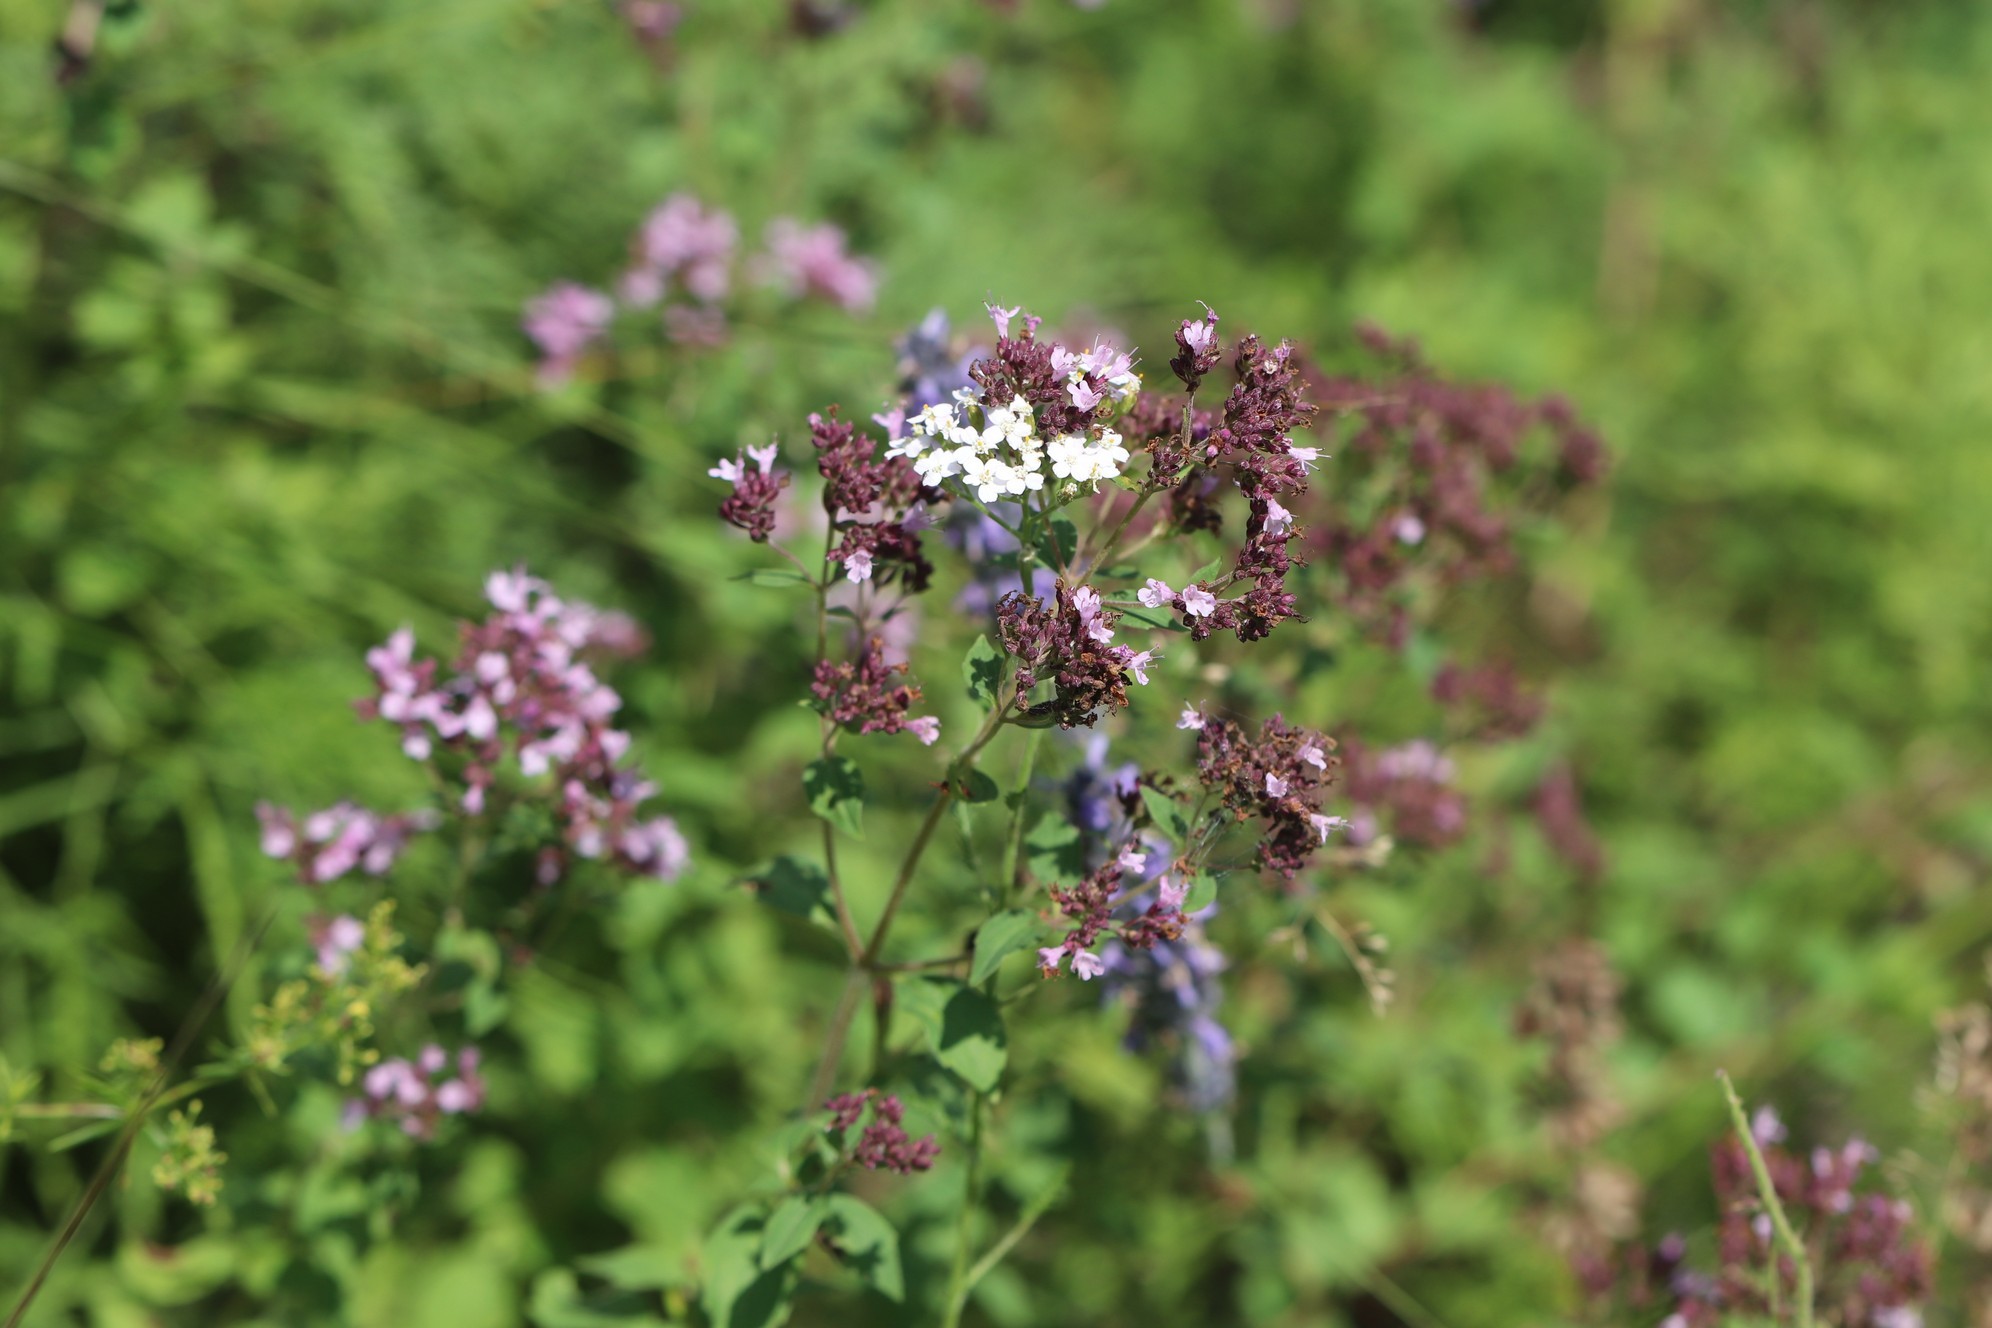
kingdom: Plantae
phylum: Tracheophyta
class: Magnoliopsida
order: Lamiales
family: Lamiaceae
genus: Origanum
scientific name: Origanum vulgare
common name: Wild marjoram
